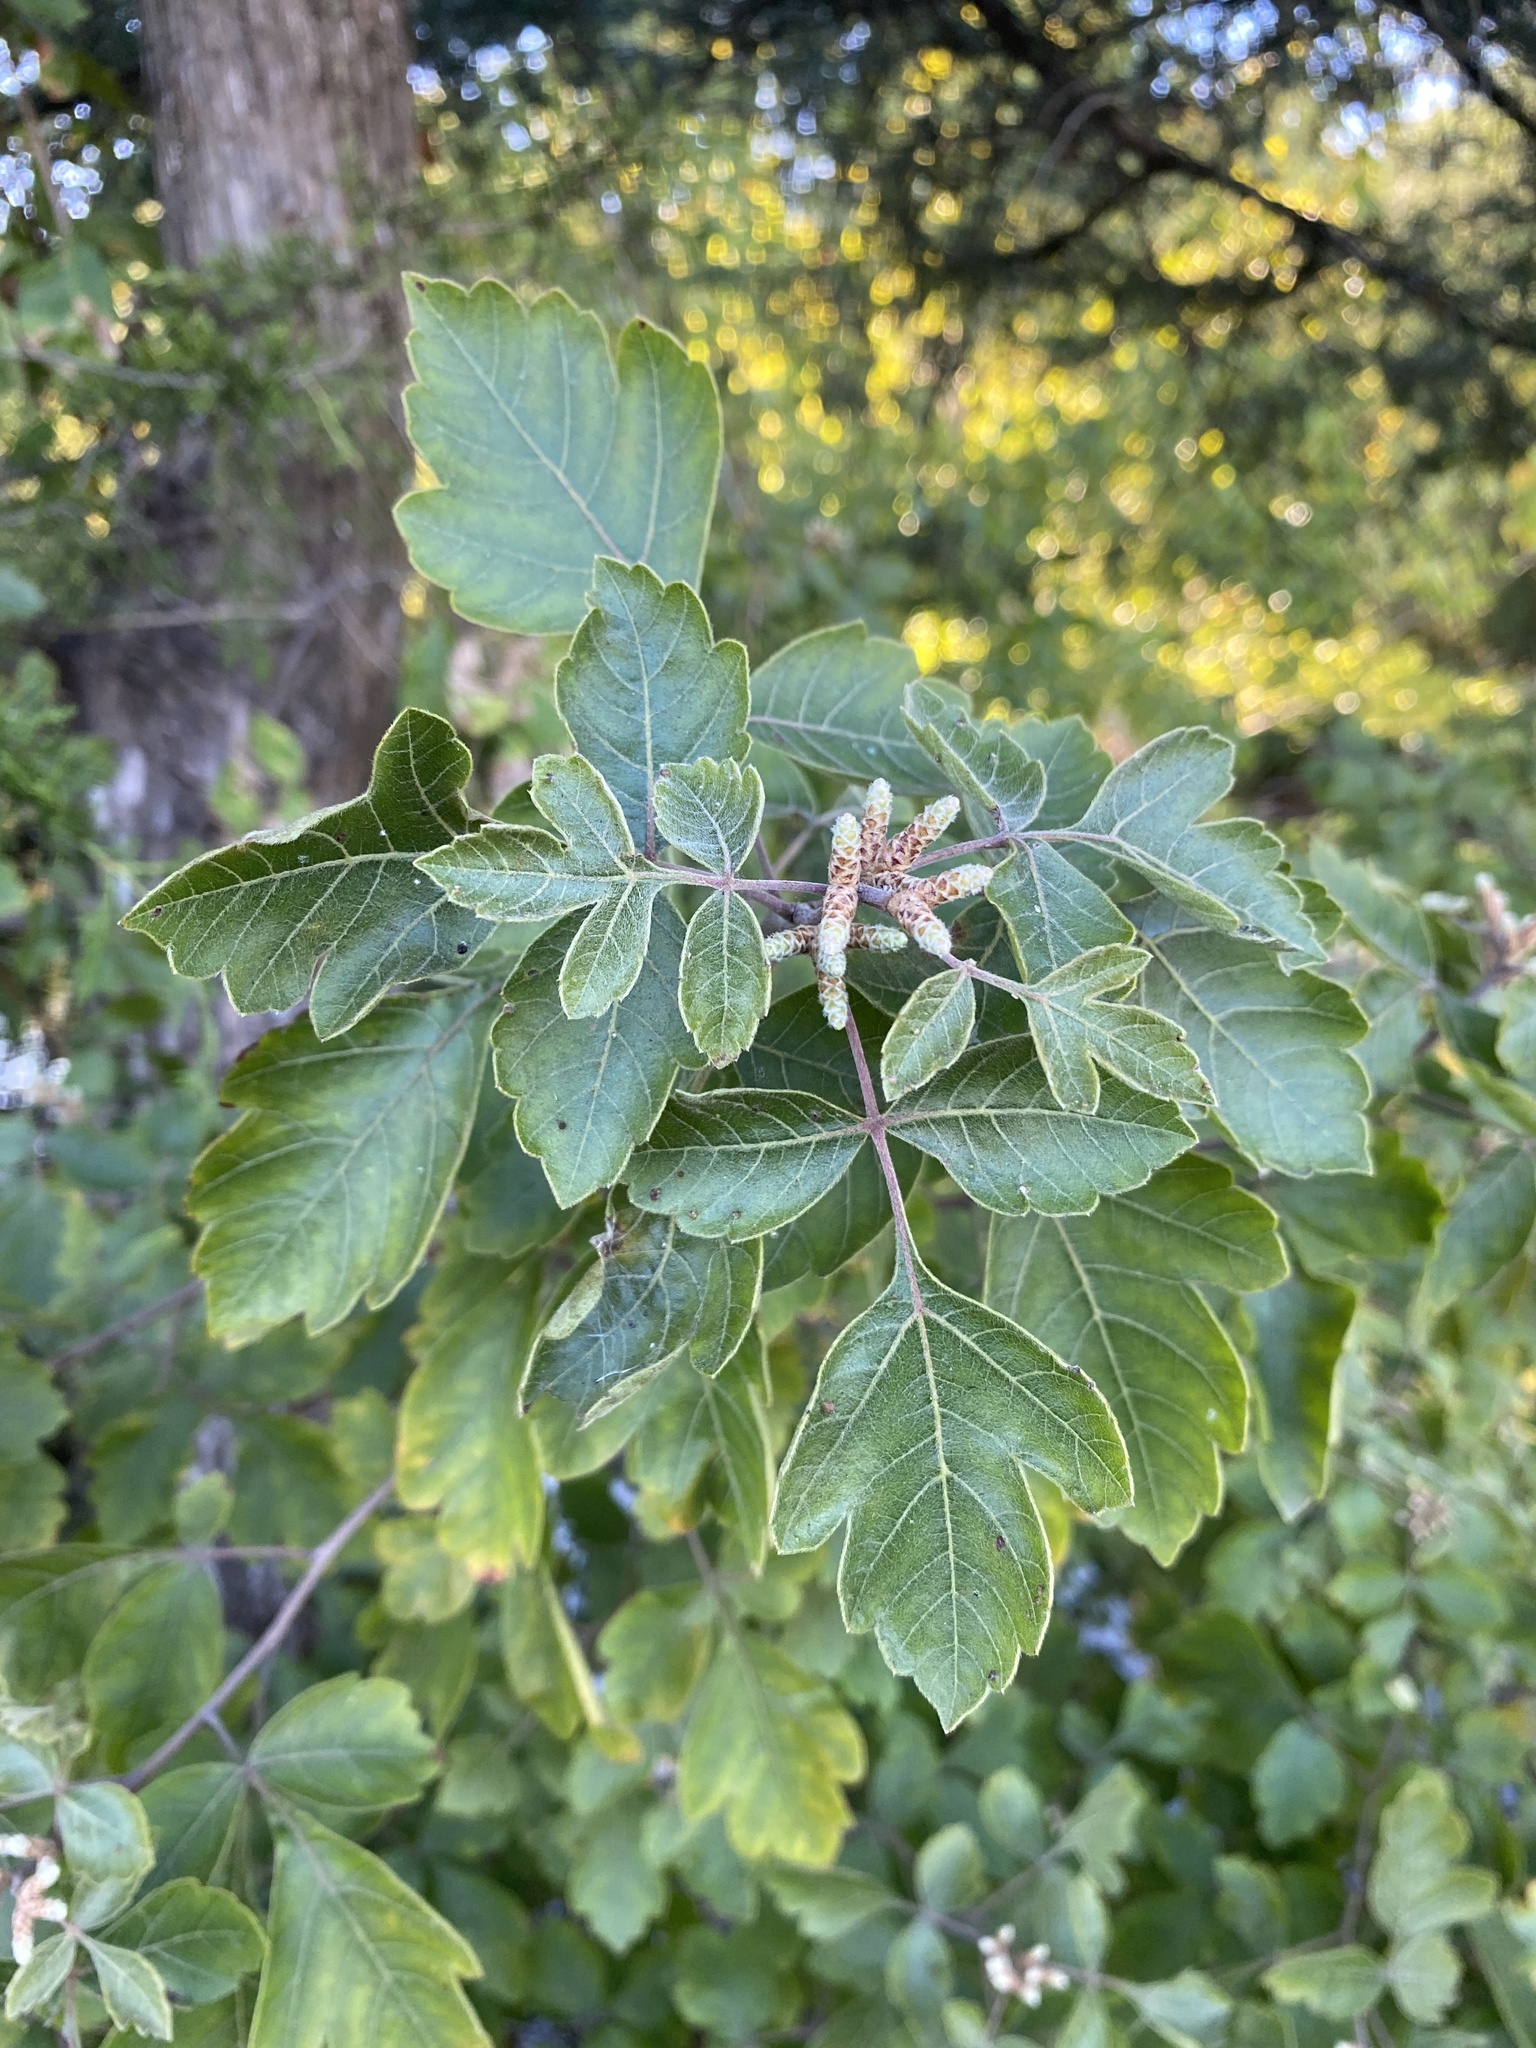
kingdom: Plantae
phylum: Tracheophyta
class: Magnoliopsida
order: Sapindales
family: Anacardiaceae
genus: Rhus
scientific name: Rhus aromatica
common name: Aromatic sumac
